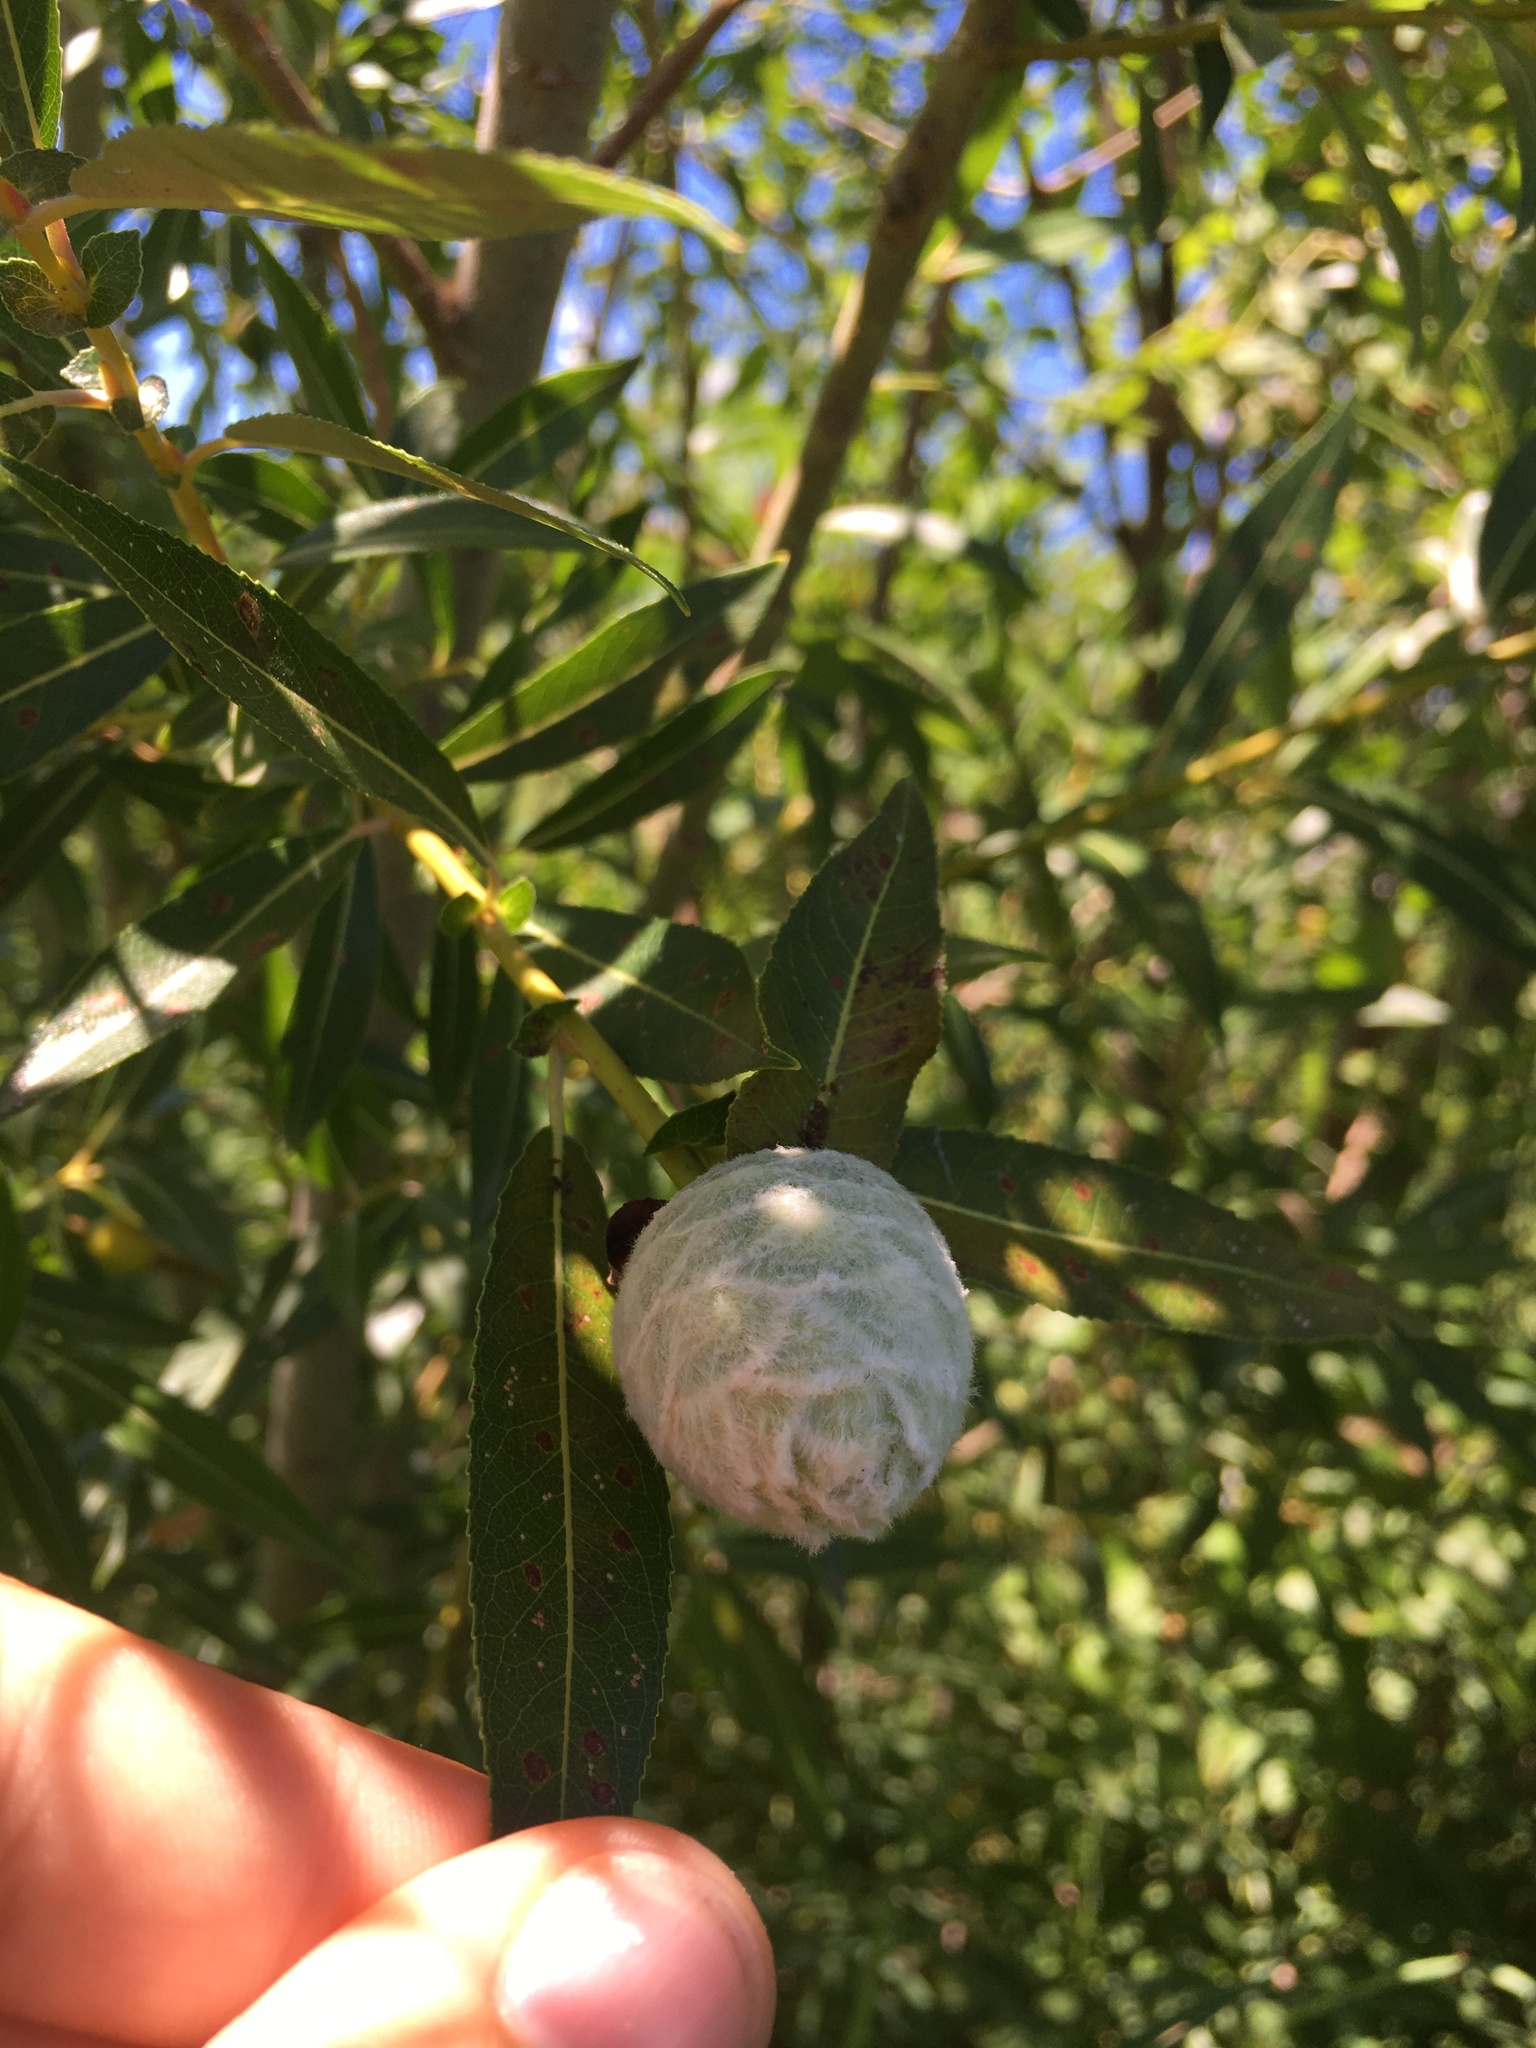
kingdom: Animalia
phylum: Arthropoda
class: Insecta
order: Diptera
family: Cecidomyiidae
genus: Rabdophaga
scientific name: Rabdophaga strobiloides
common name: Willow pinecone gall midge
